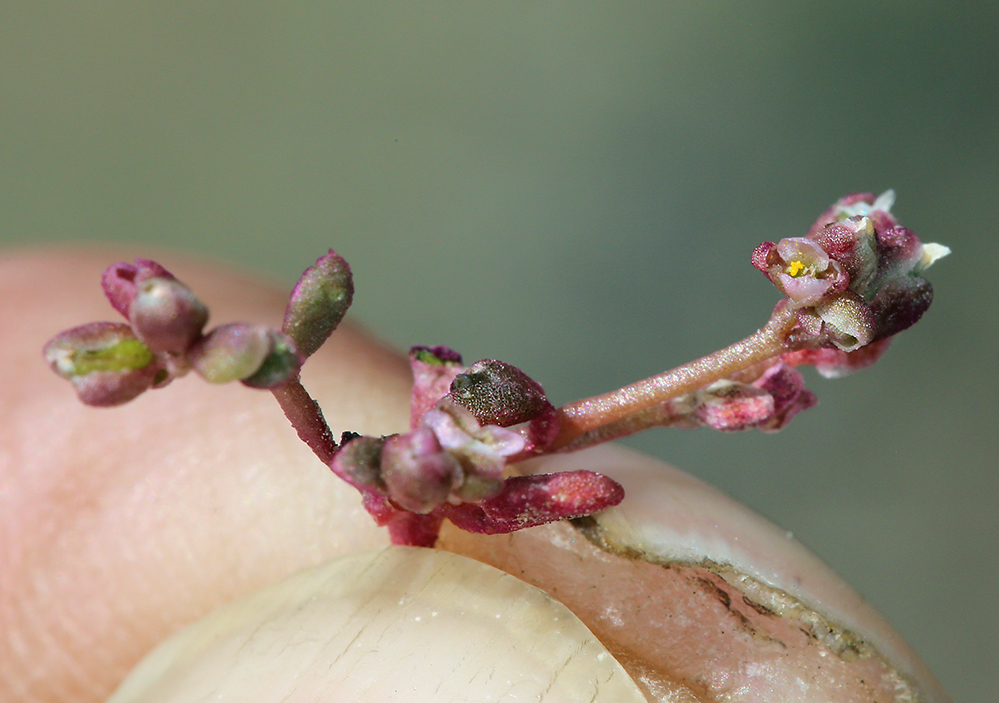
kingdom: Plantae
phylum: Tracheophyta
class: Magnoliopsida
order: Caryophyllales
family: Montiaceae
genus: Calyptridium
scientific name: Calyptridium roseum
